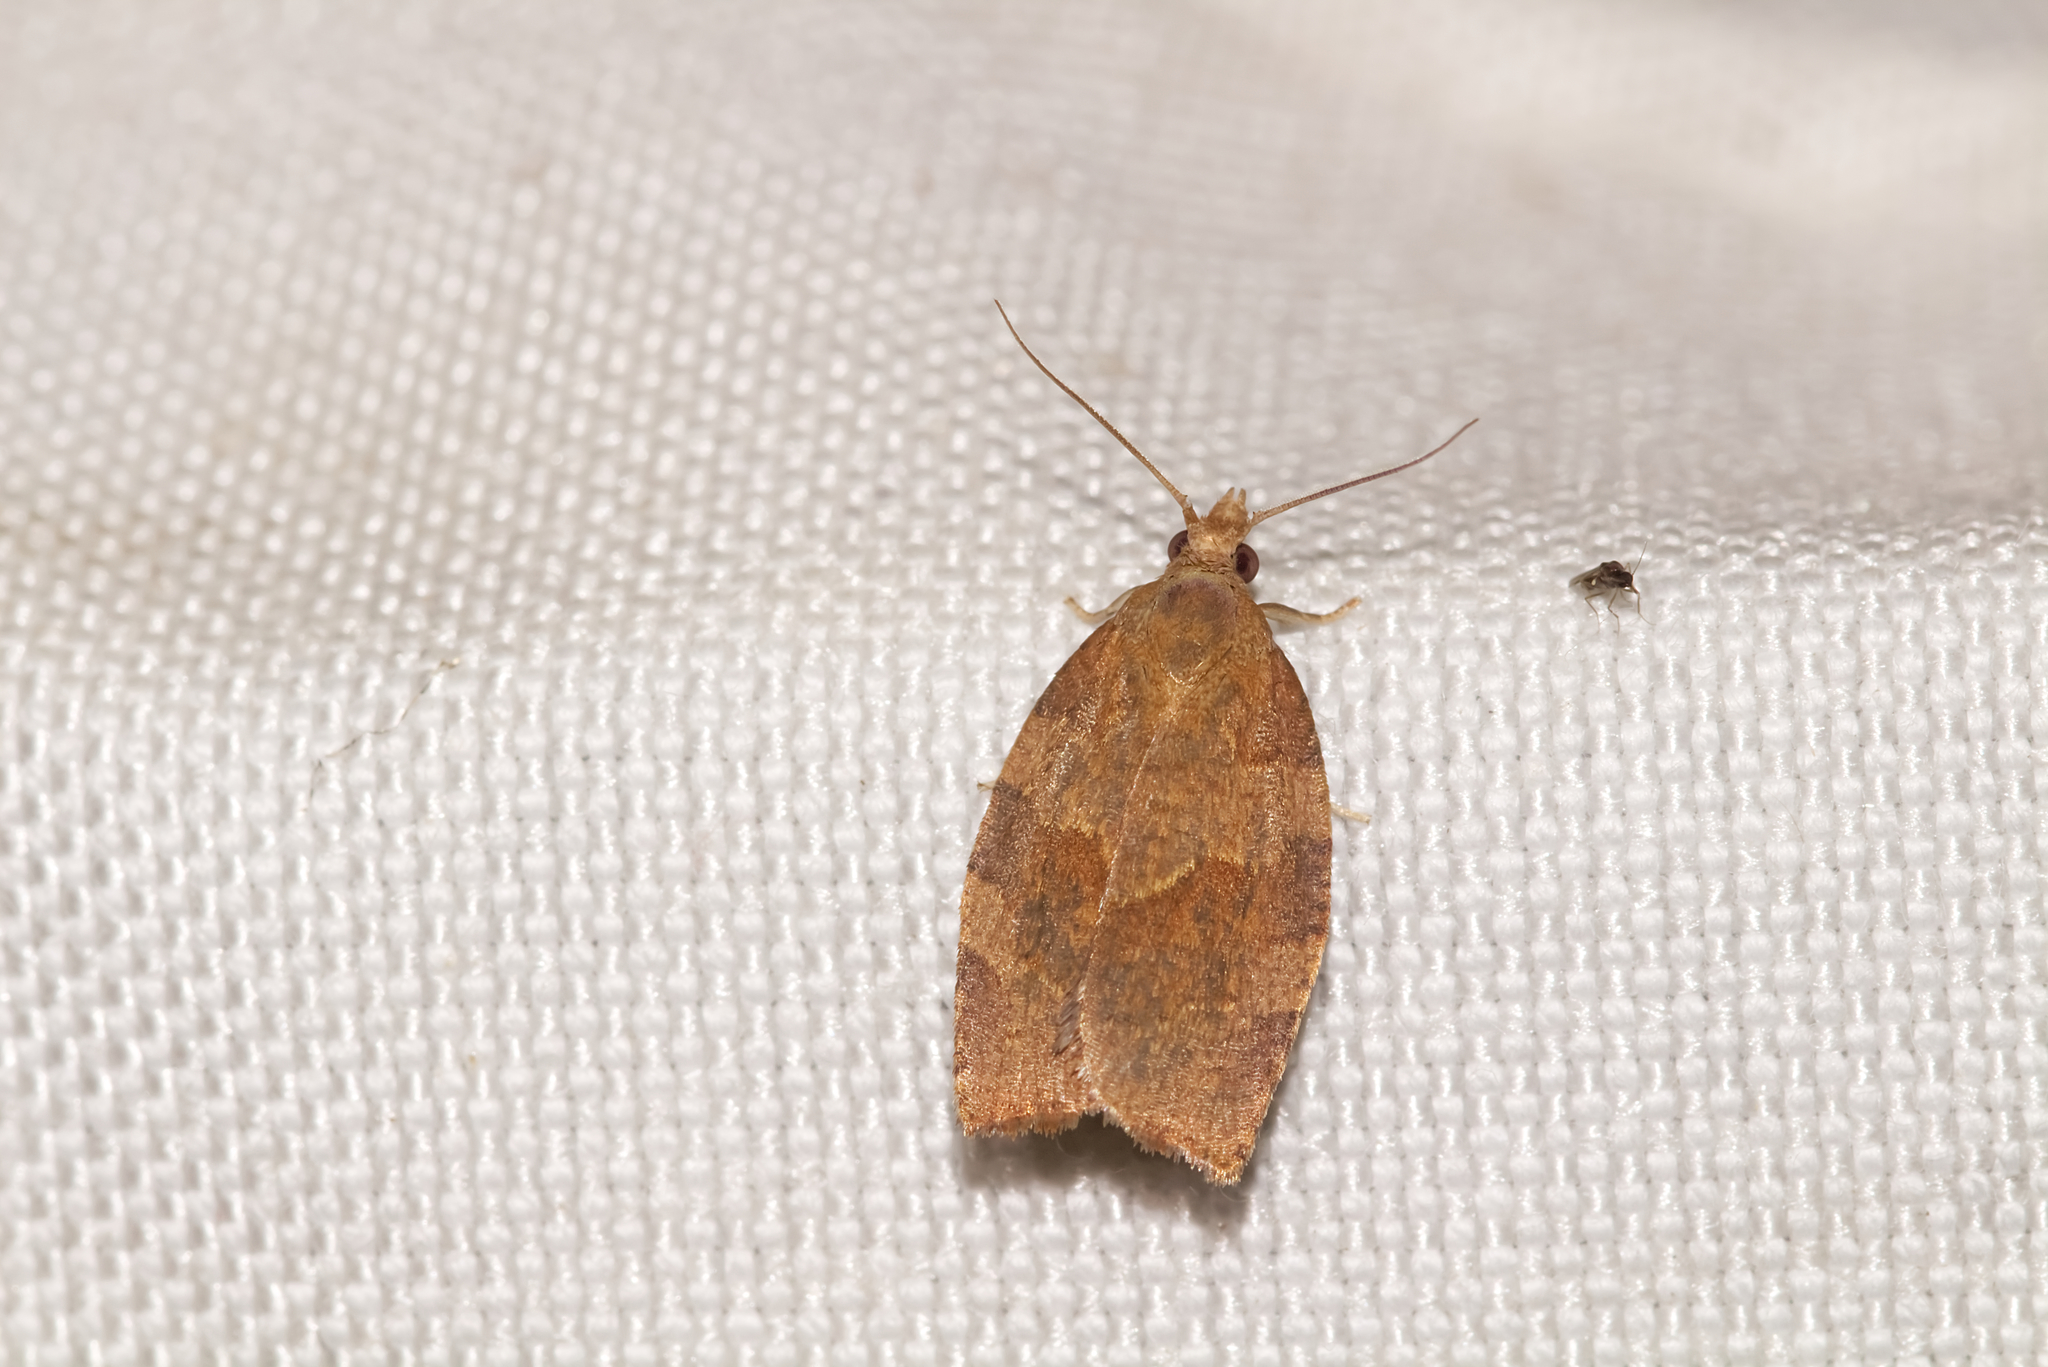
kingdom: Animalia
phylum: Arthropoda
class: Insecta
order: Lepidoptera
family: Tortricidae
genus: Pandemis
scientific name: Pandemis heparana
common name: Dark fruit-tree tortrix
